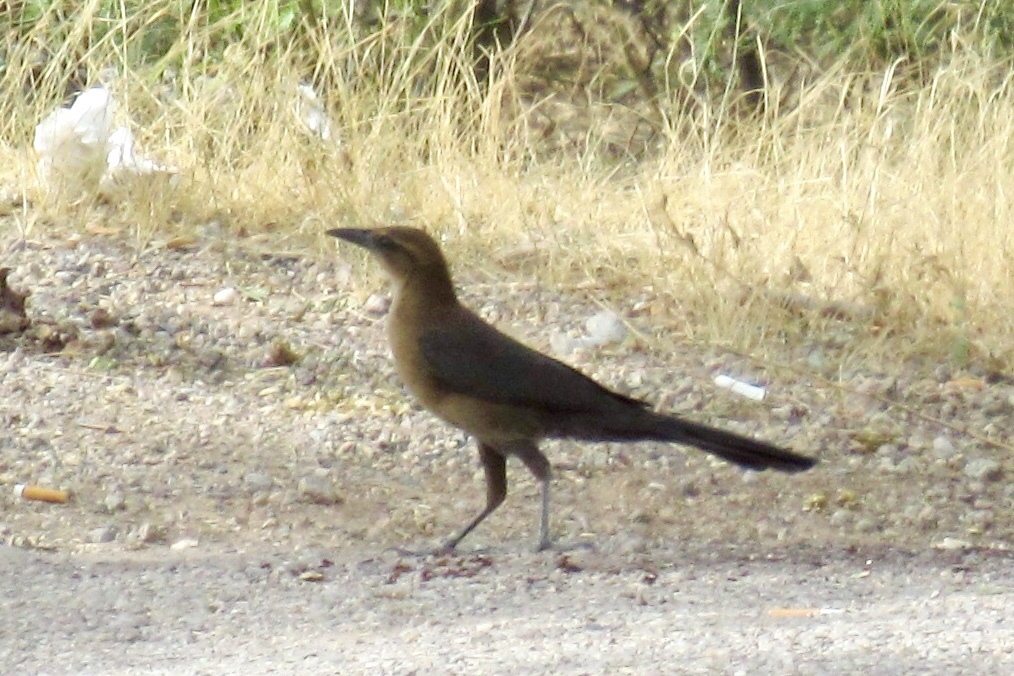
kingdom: Animalia
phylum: Chordata
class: Aves
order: Passeriformes
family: Icteridae
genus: Quiscalus
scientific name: Quiscalus mexicanus
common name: Great-tailed grackle
